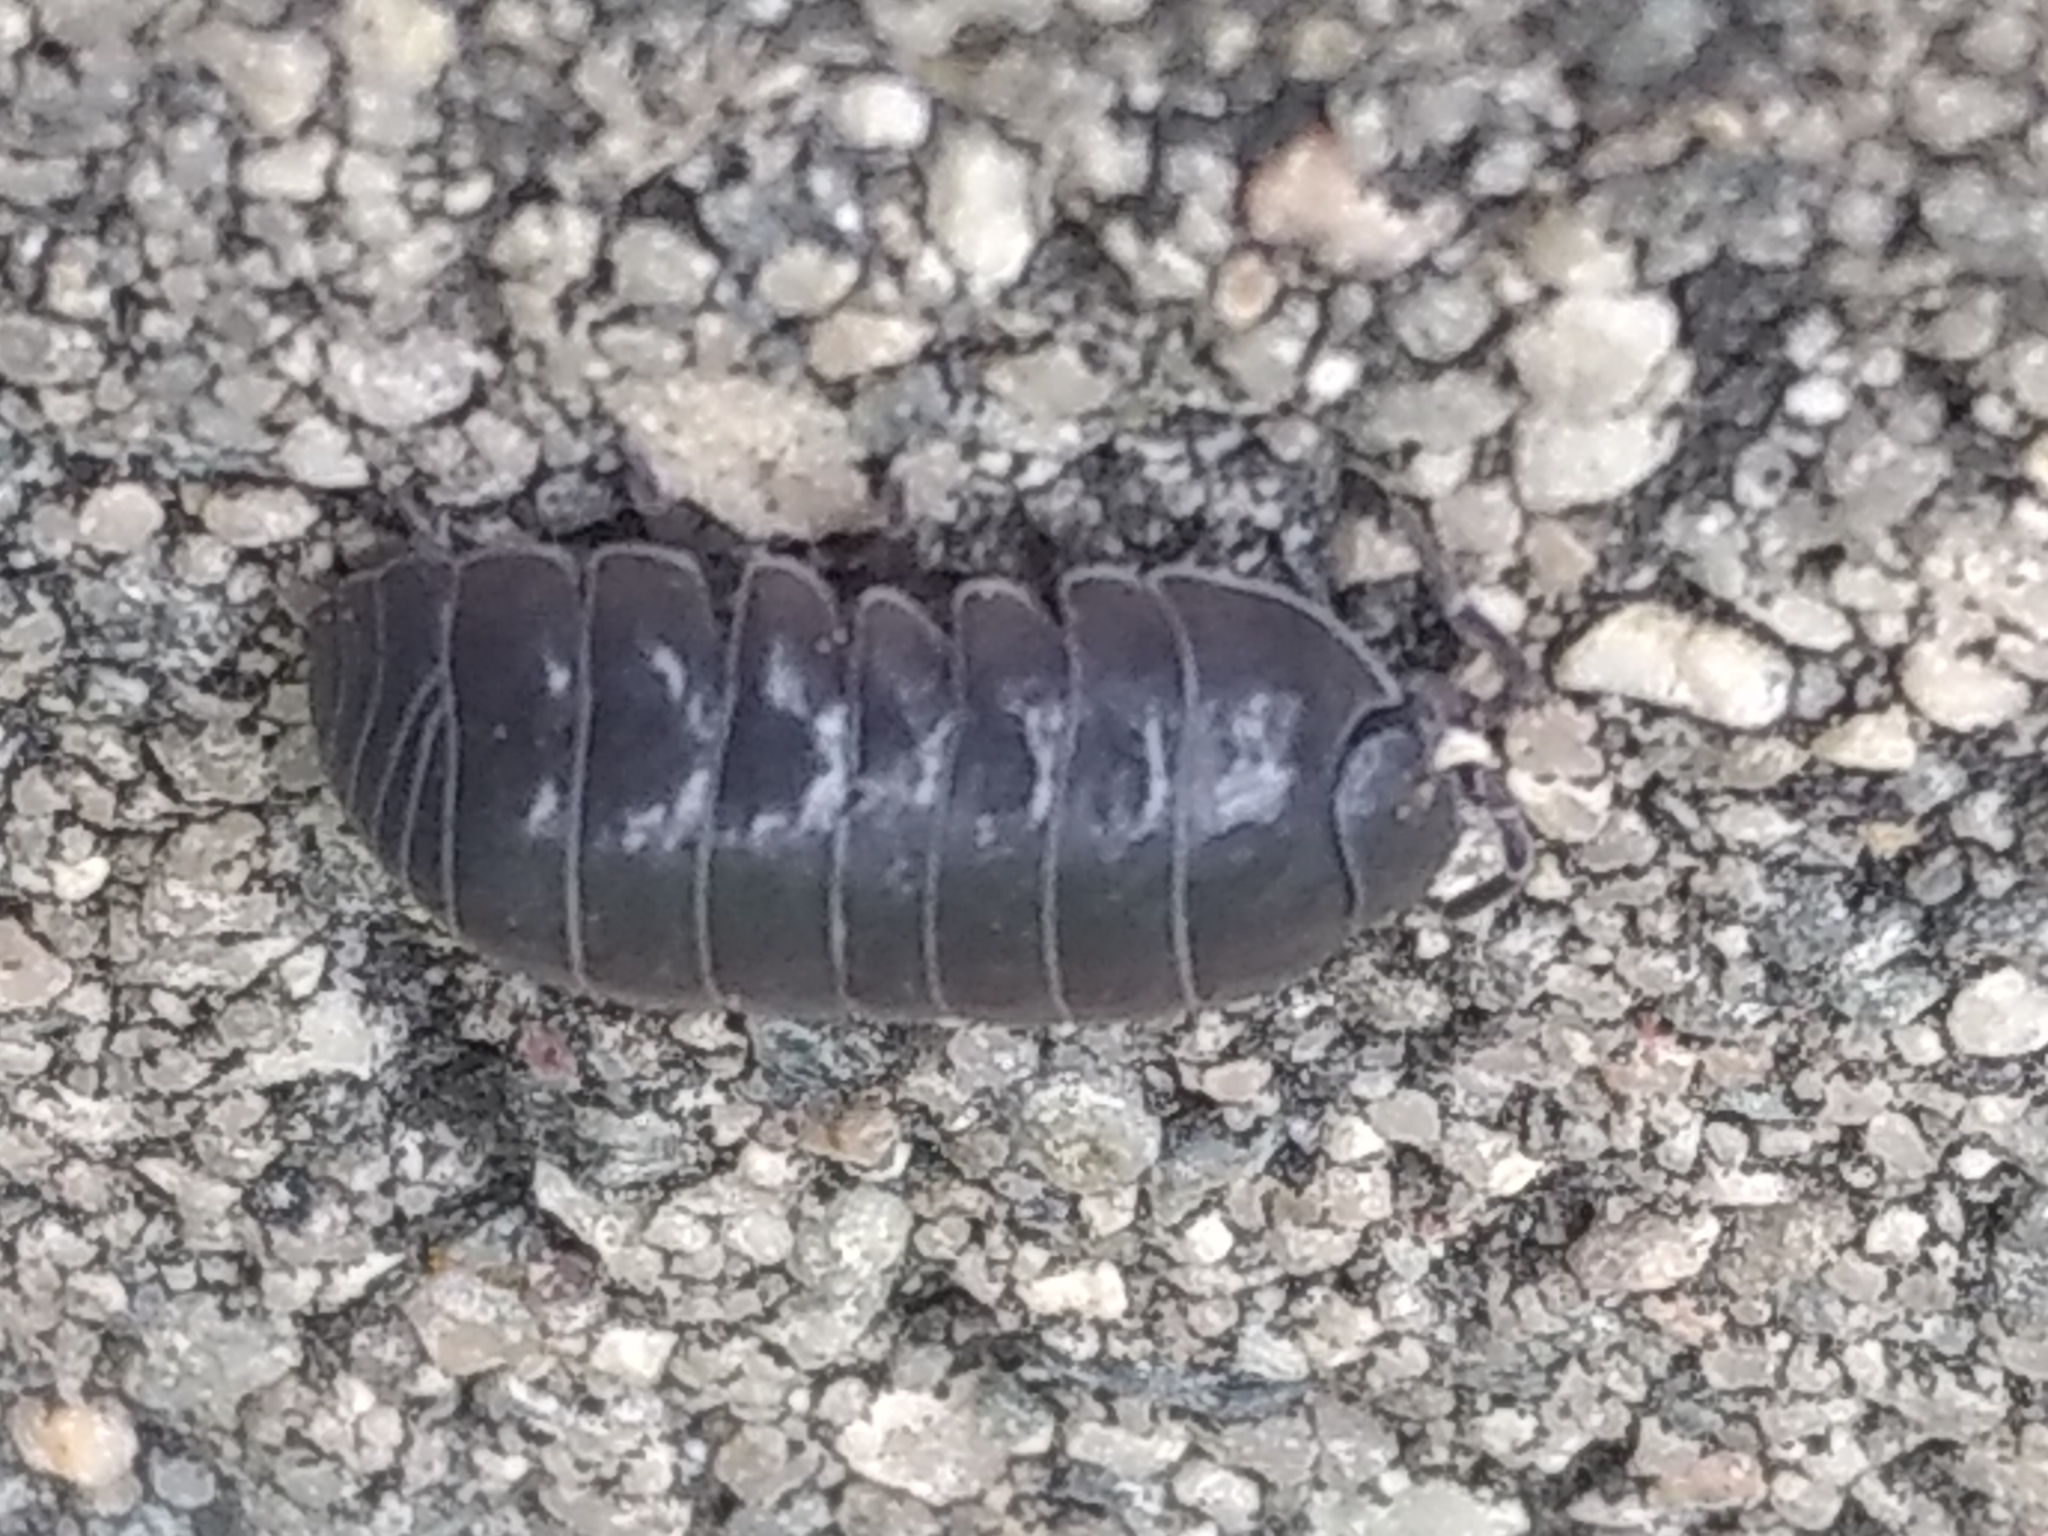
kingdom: Animalia
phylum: Arthropoda
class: Malacostraca
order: Isopoda
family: Armadillidiidae
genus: Armadillidium
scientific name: Armadillidium vulgare
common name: Common pill woodlouse
